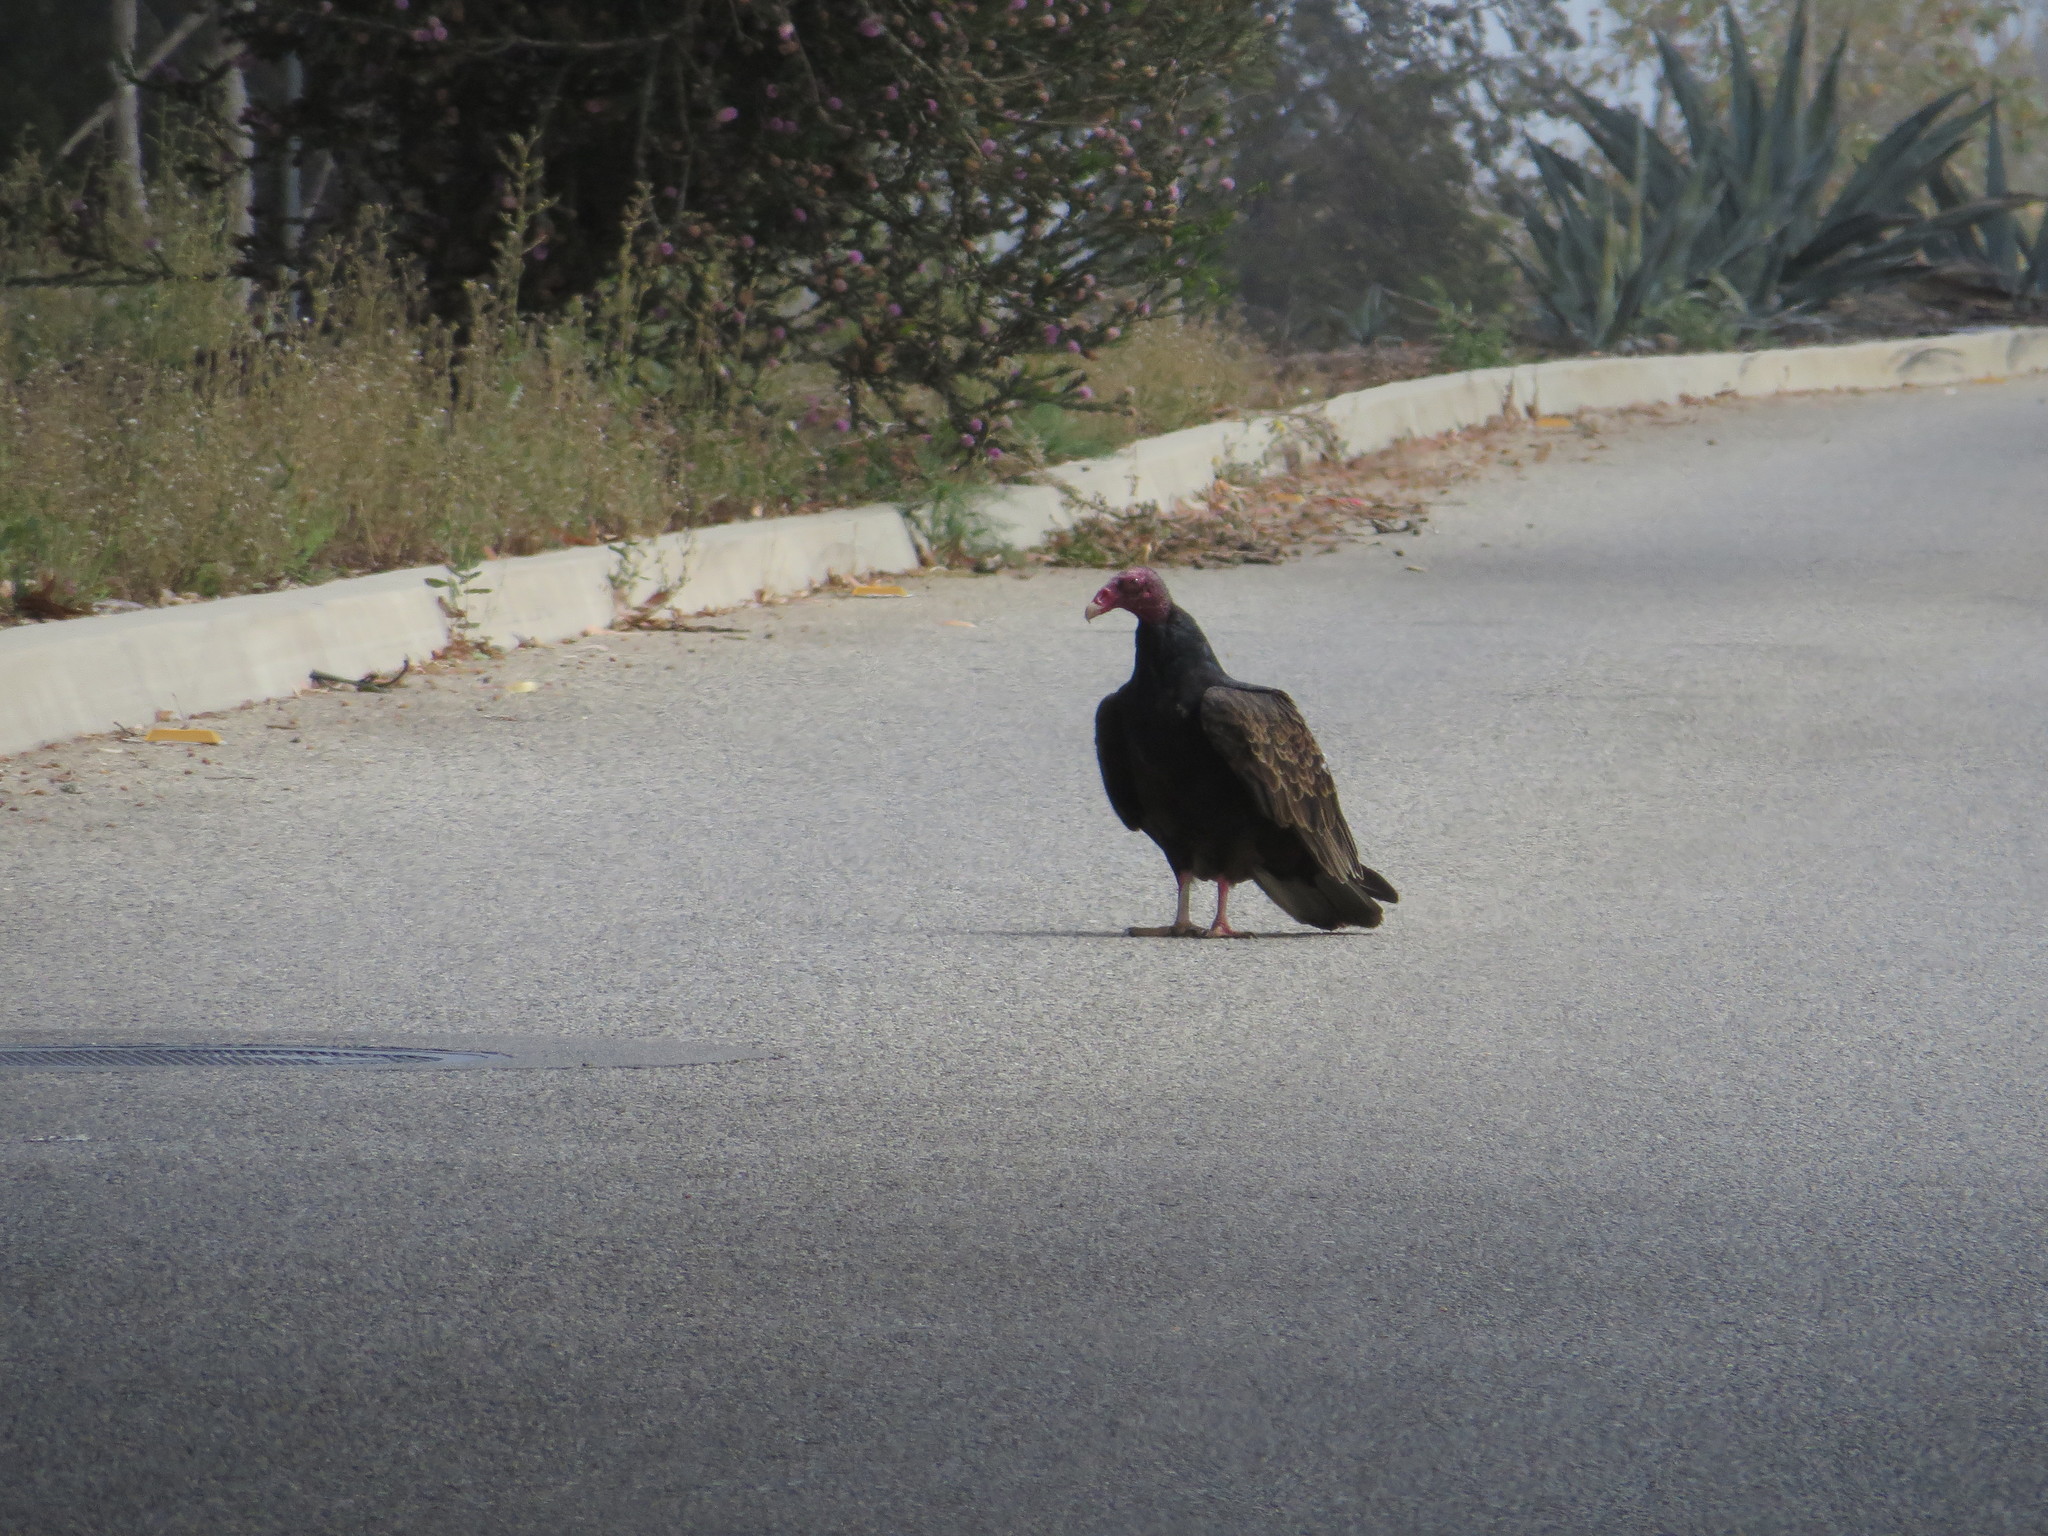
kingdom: Animalia
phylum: Chordata
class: Aves
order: Accipitriformes
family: Cathartidae
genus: Cathartes
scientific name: Cathartes aura
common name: Turkey vulture
